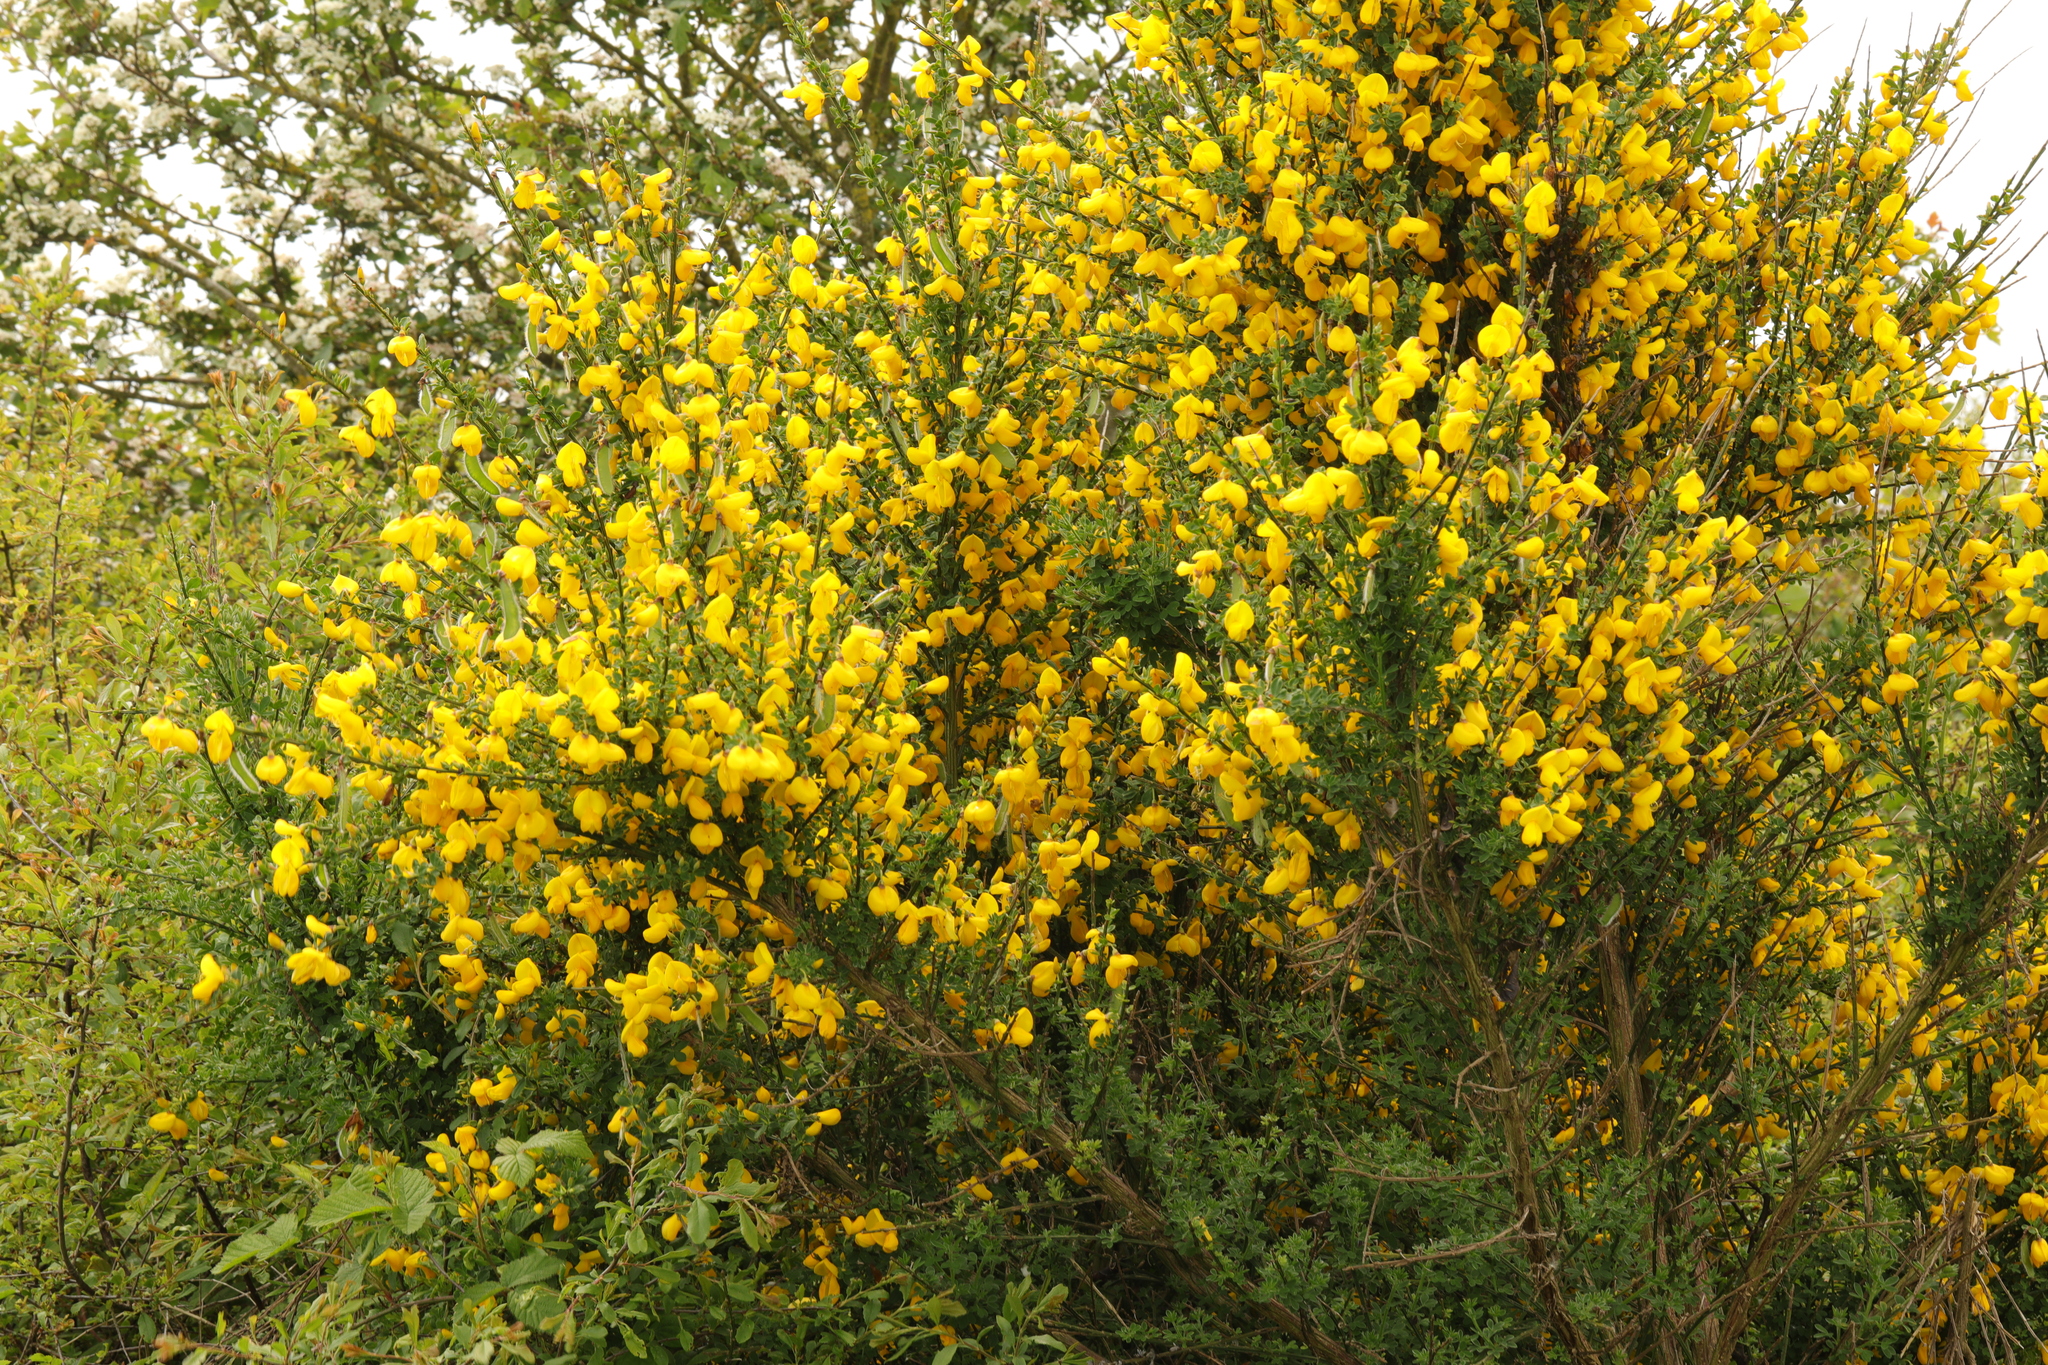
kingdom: Plantae
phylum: Tracheophyta
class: Magnoliopsida
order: Fabales
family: Fabaceae
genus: Cytisus
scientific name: Cytisus scoparius
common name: Scotch broom
